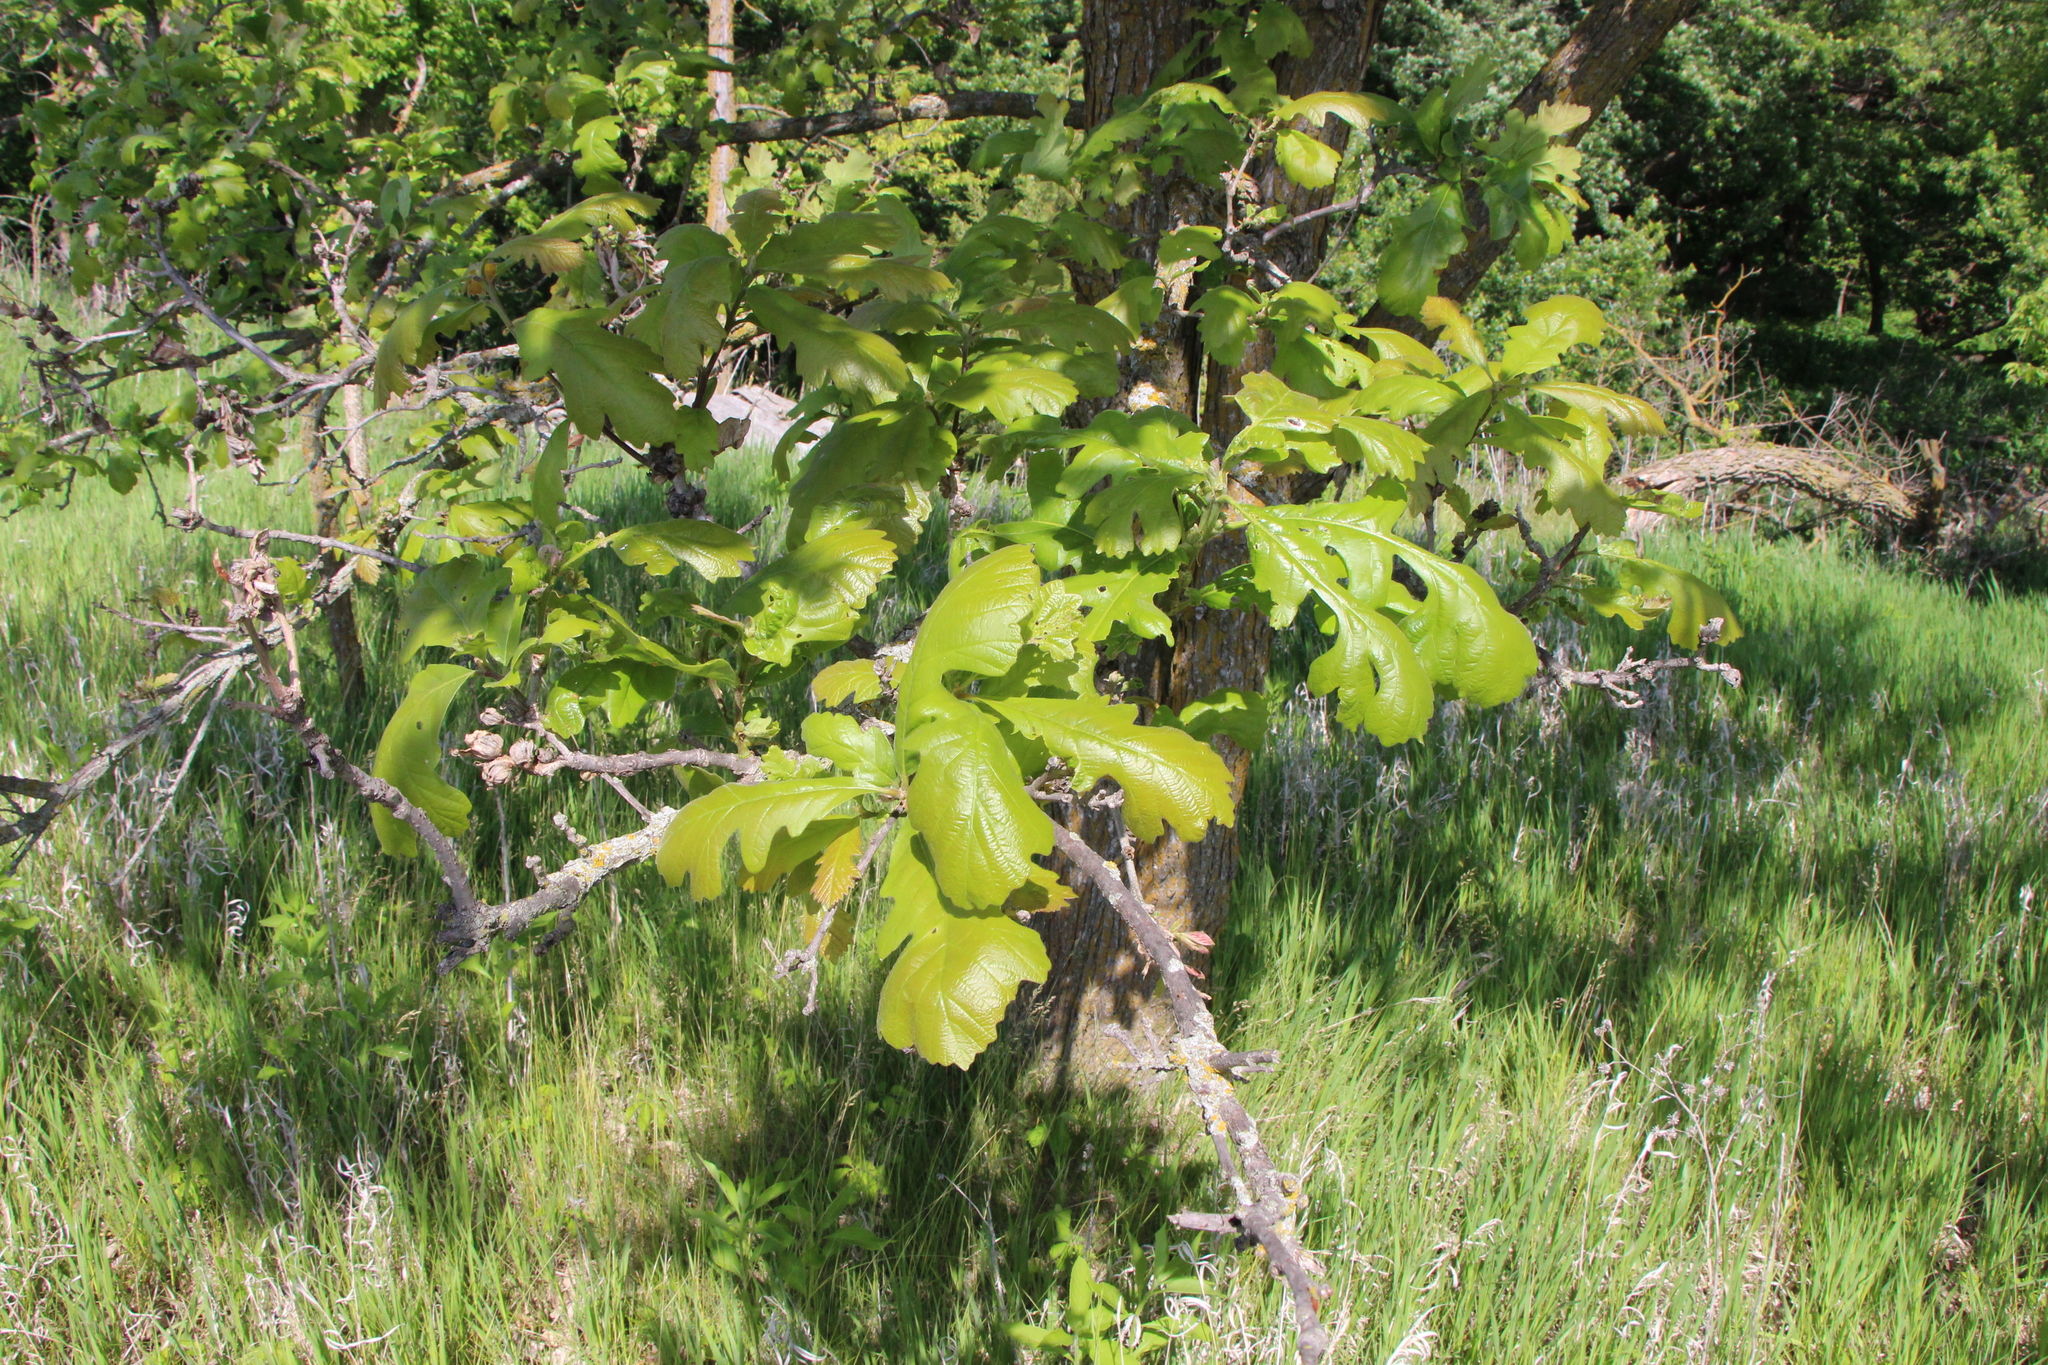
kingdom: Plantae
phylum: Tracheophyta
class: Magnoliopsida
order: Fagales
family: Fagaceae
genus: Quercus
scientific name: Quercus macrocarpa
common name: Bur oak
